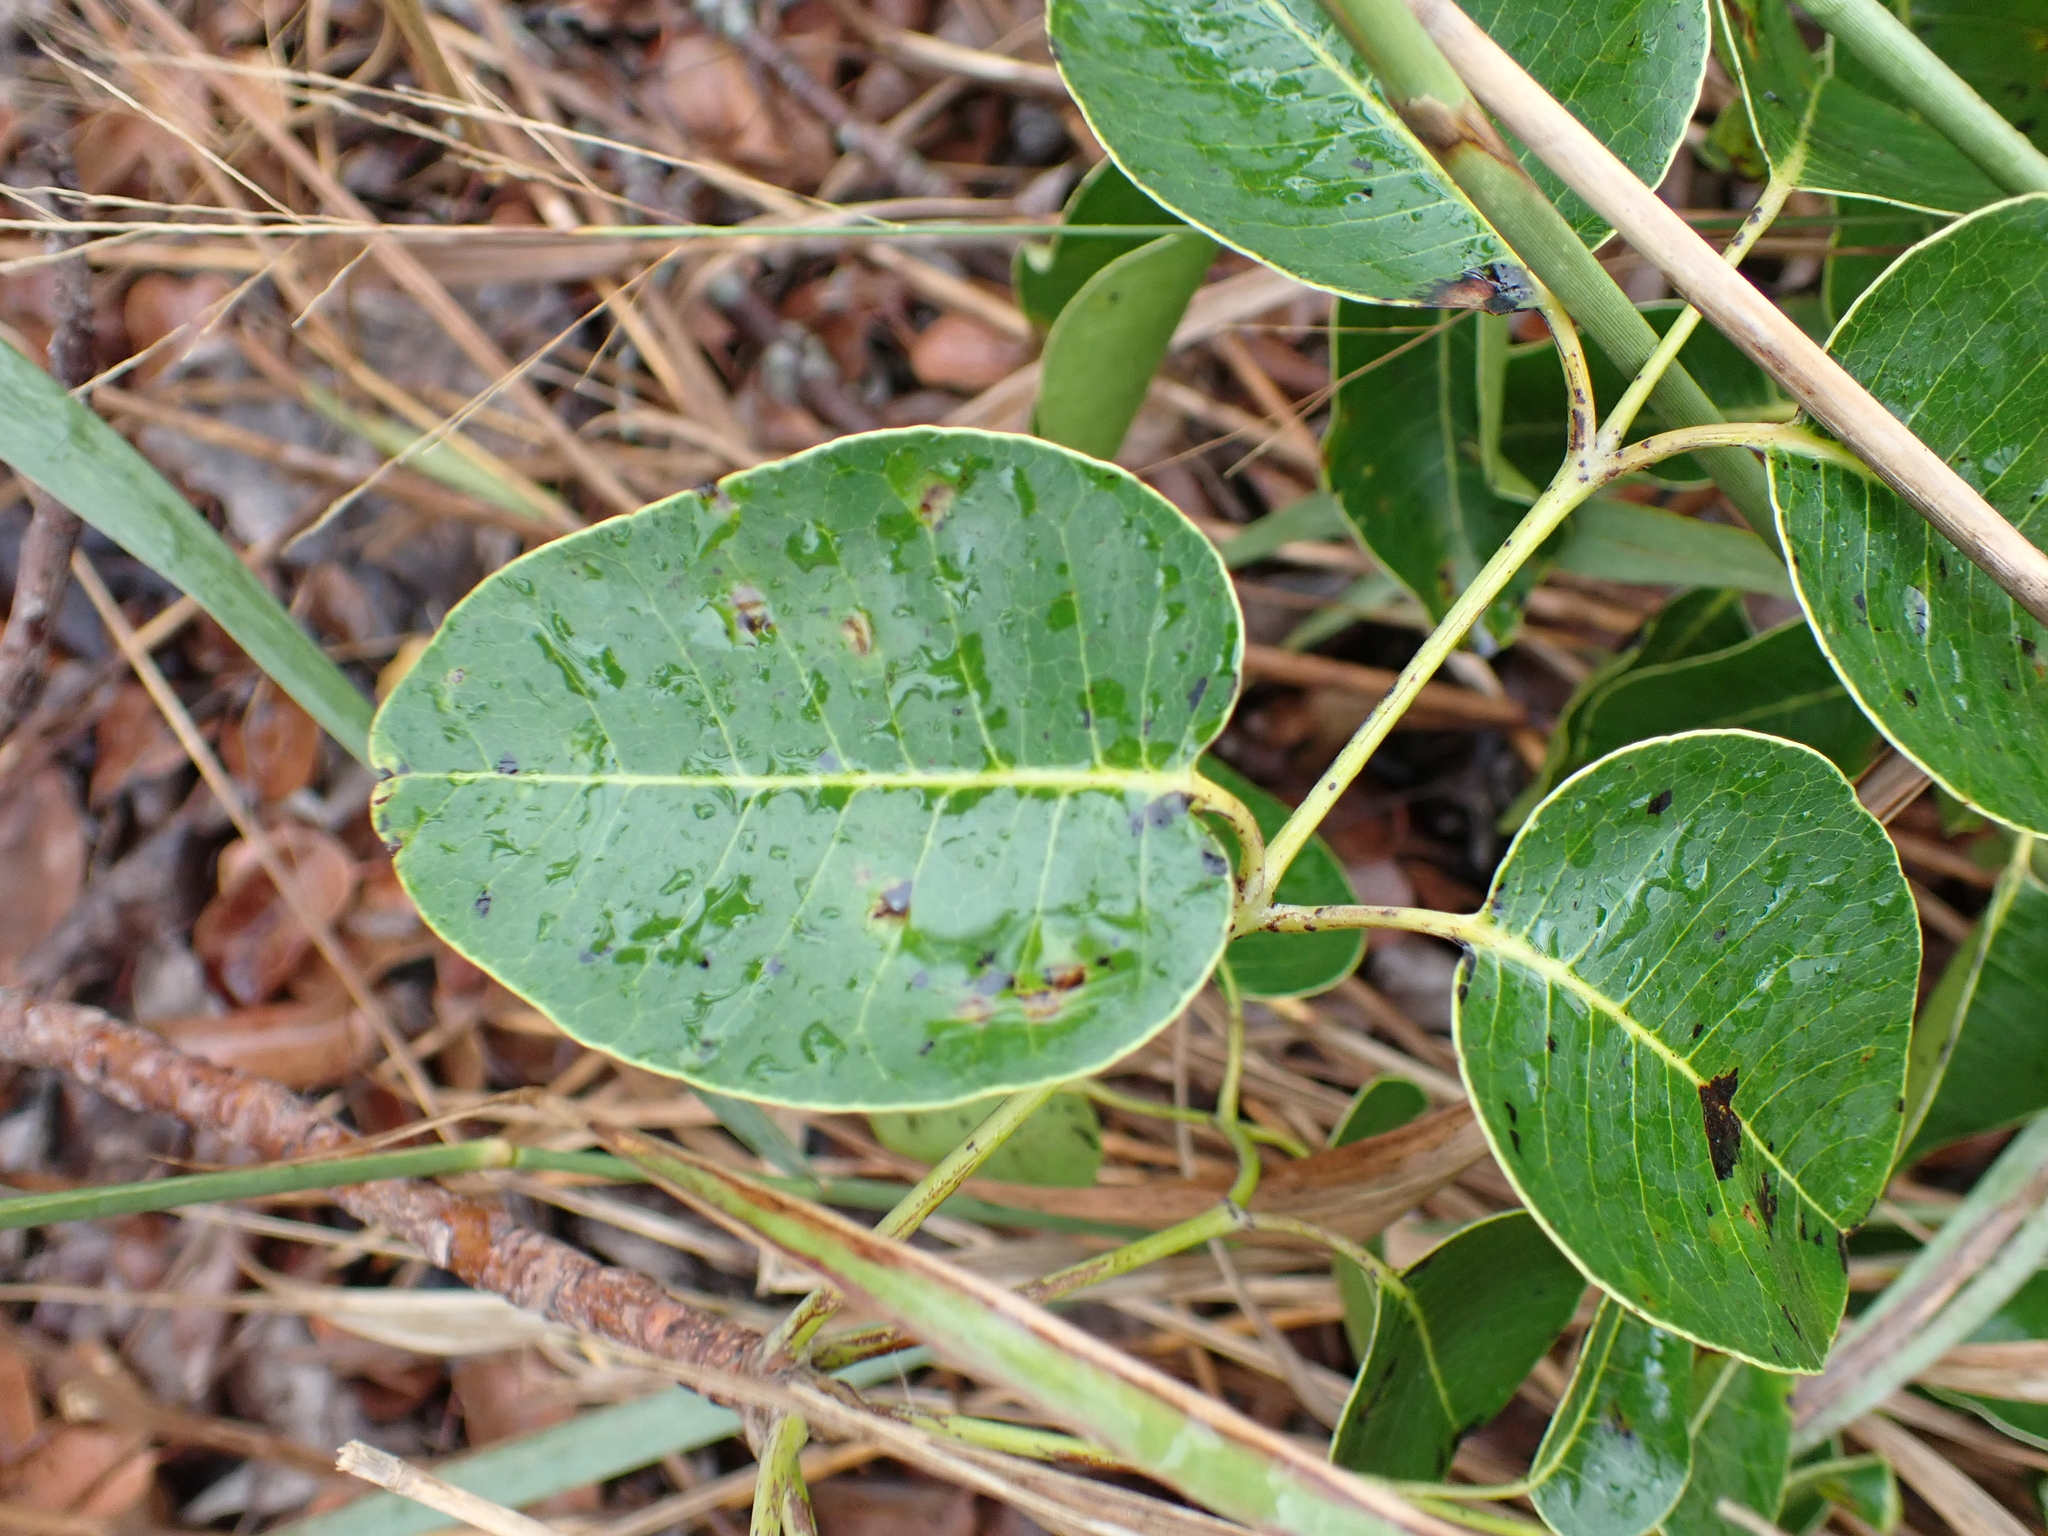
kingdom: Plantae
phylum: Tracheophyta
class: Magnoliopsida
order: Sapindales
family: Anacardiaceae
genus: Metopium
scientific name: Metopium toxiferum
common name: Florida poisontree
